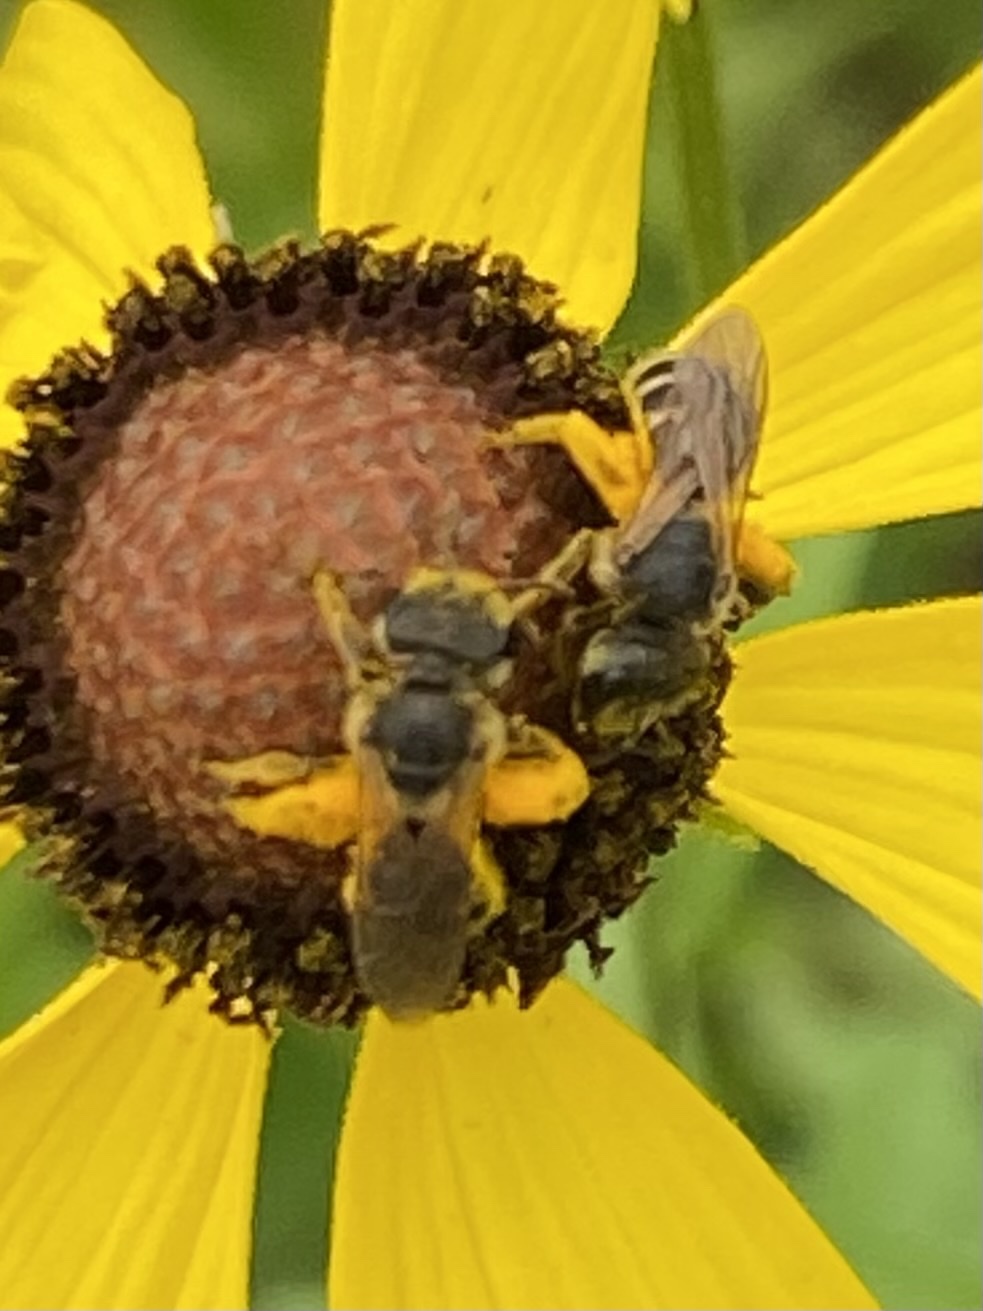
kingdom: Animalia
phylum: Arthropoda
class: Insecta
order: Hymenoptera
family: Halictidae
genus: Halictus
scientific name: Halictus ligatus
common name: Ligated furrow bee
